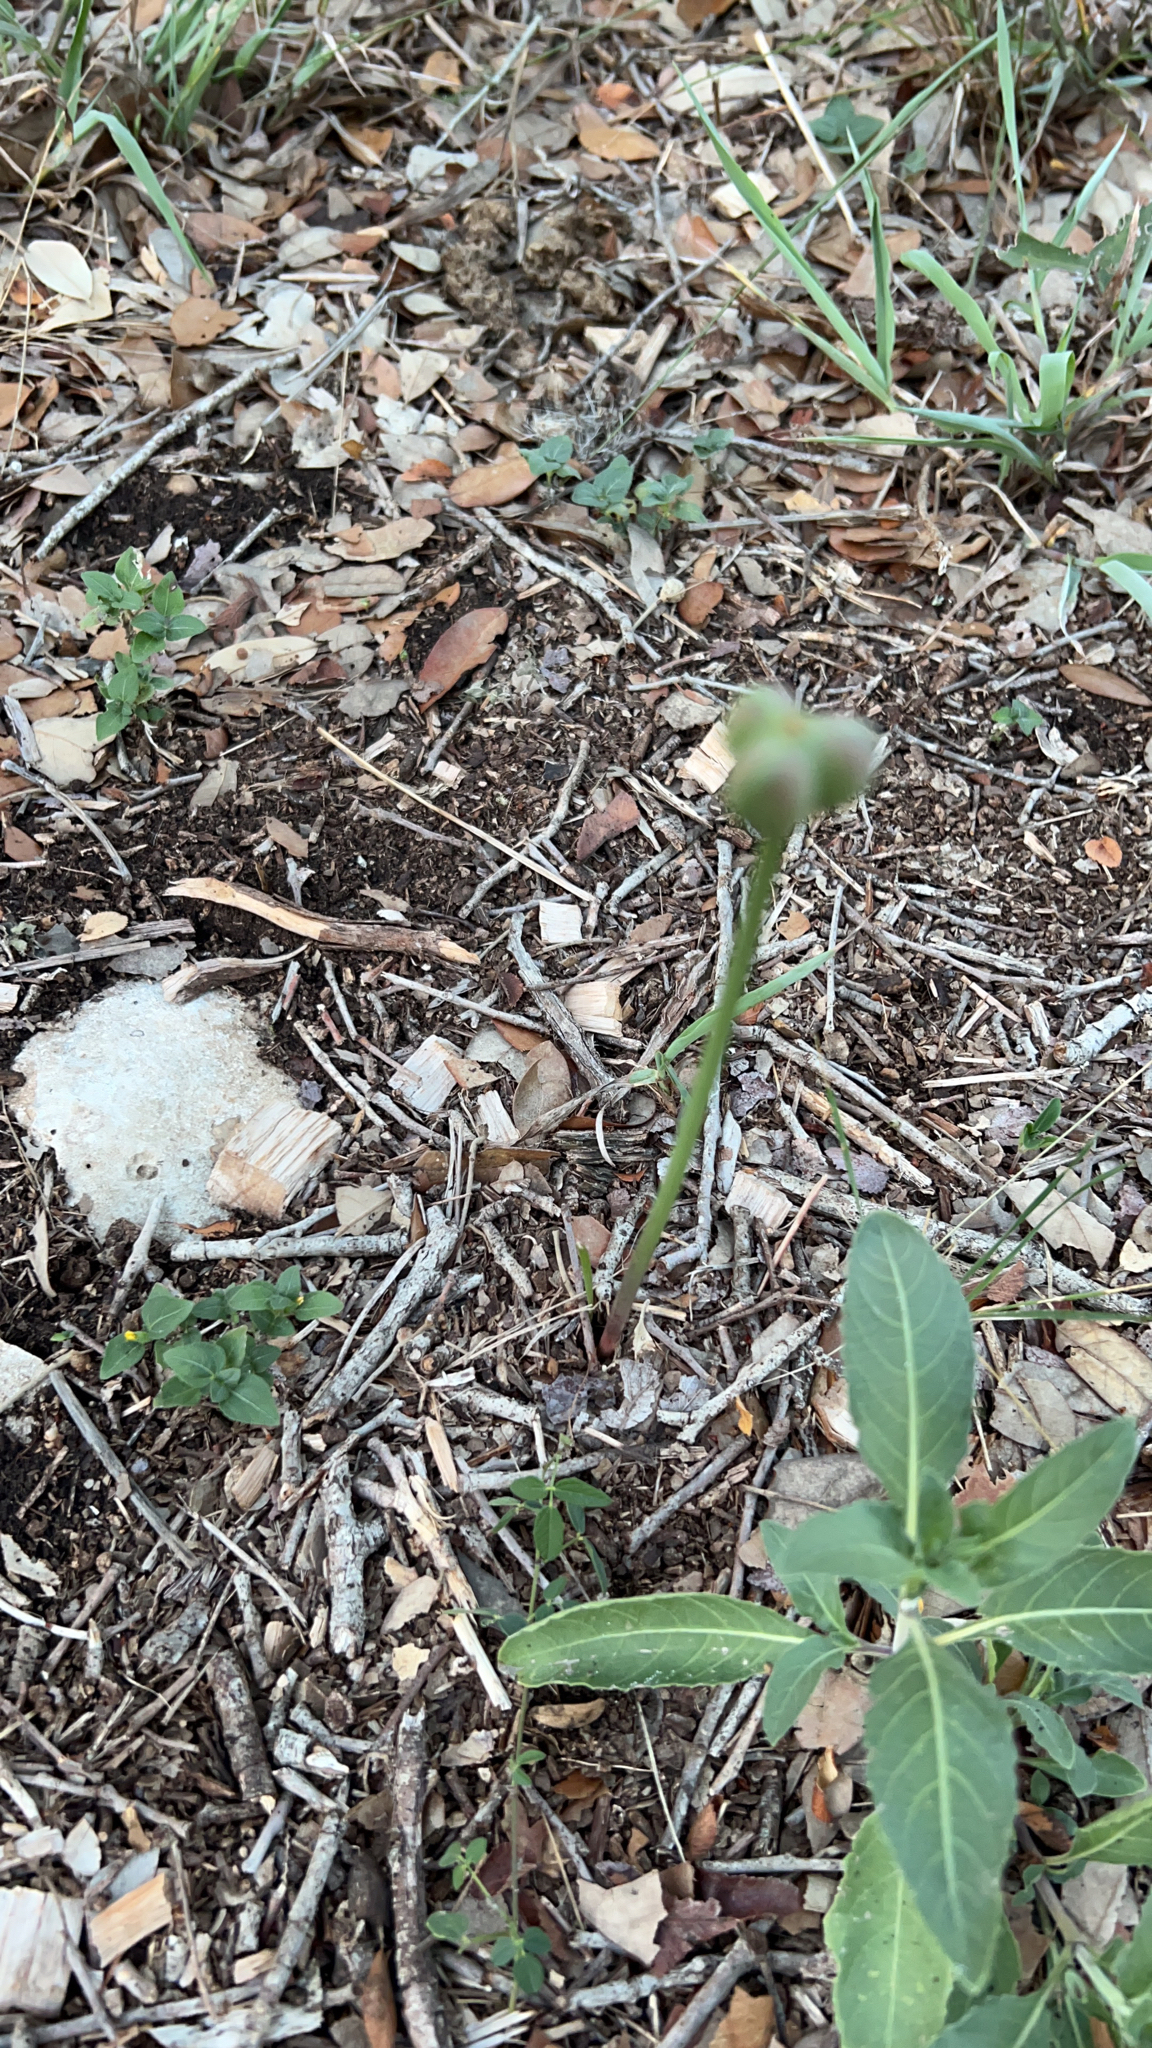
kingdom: Plantae
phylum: Tracheophyta
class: Liliopsida
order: Asparagales
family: Amaryllidaceae
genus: Zephyranthes
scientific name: Zephyranthes
